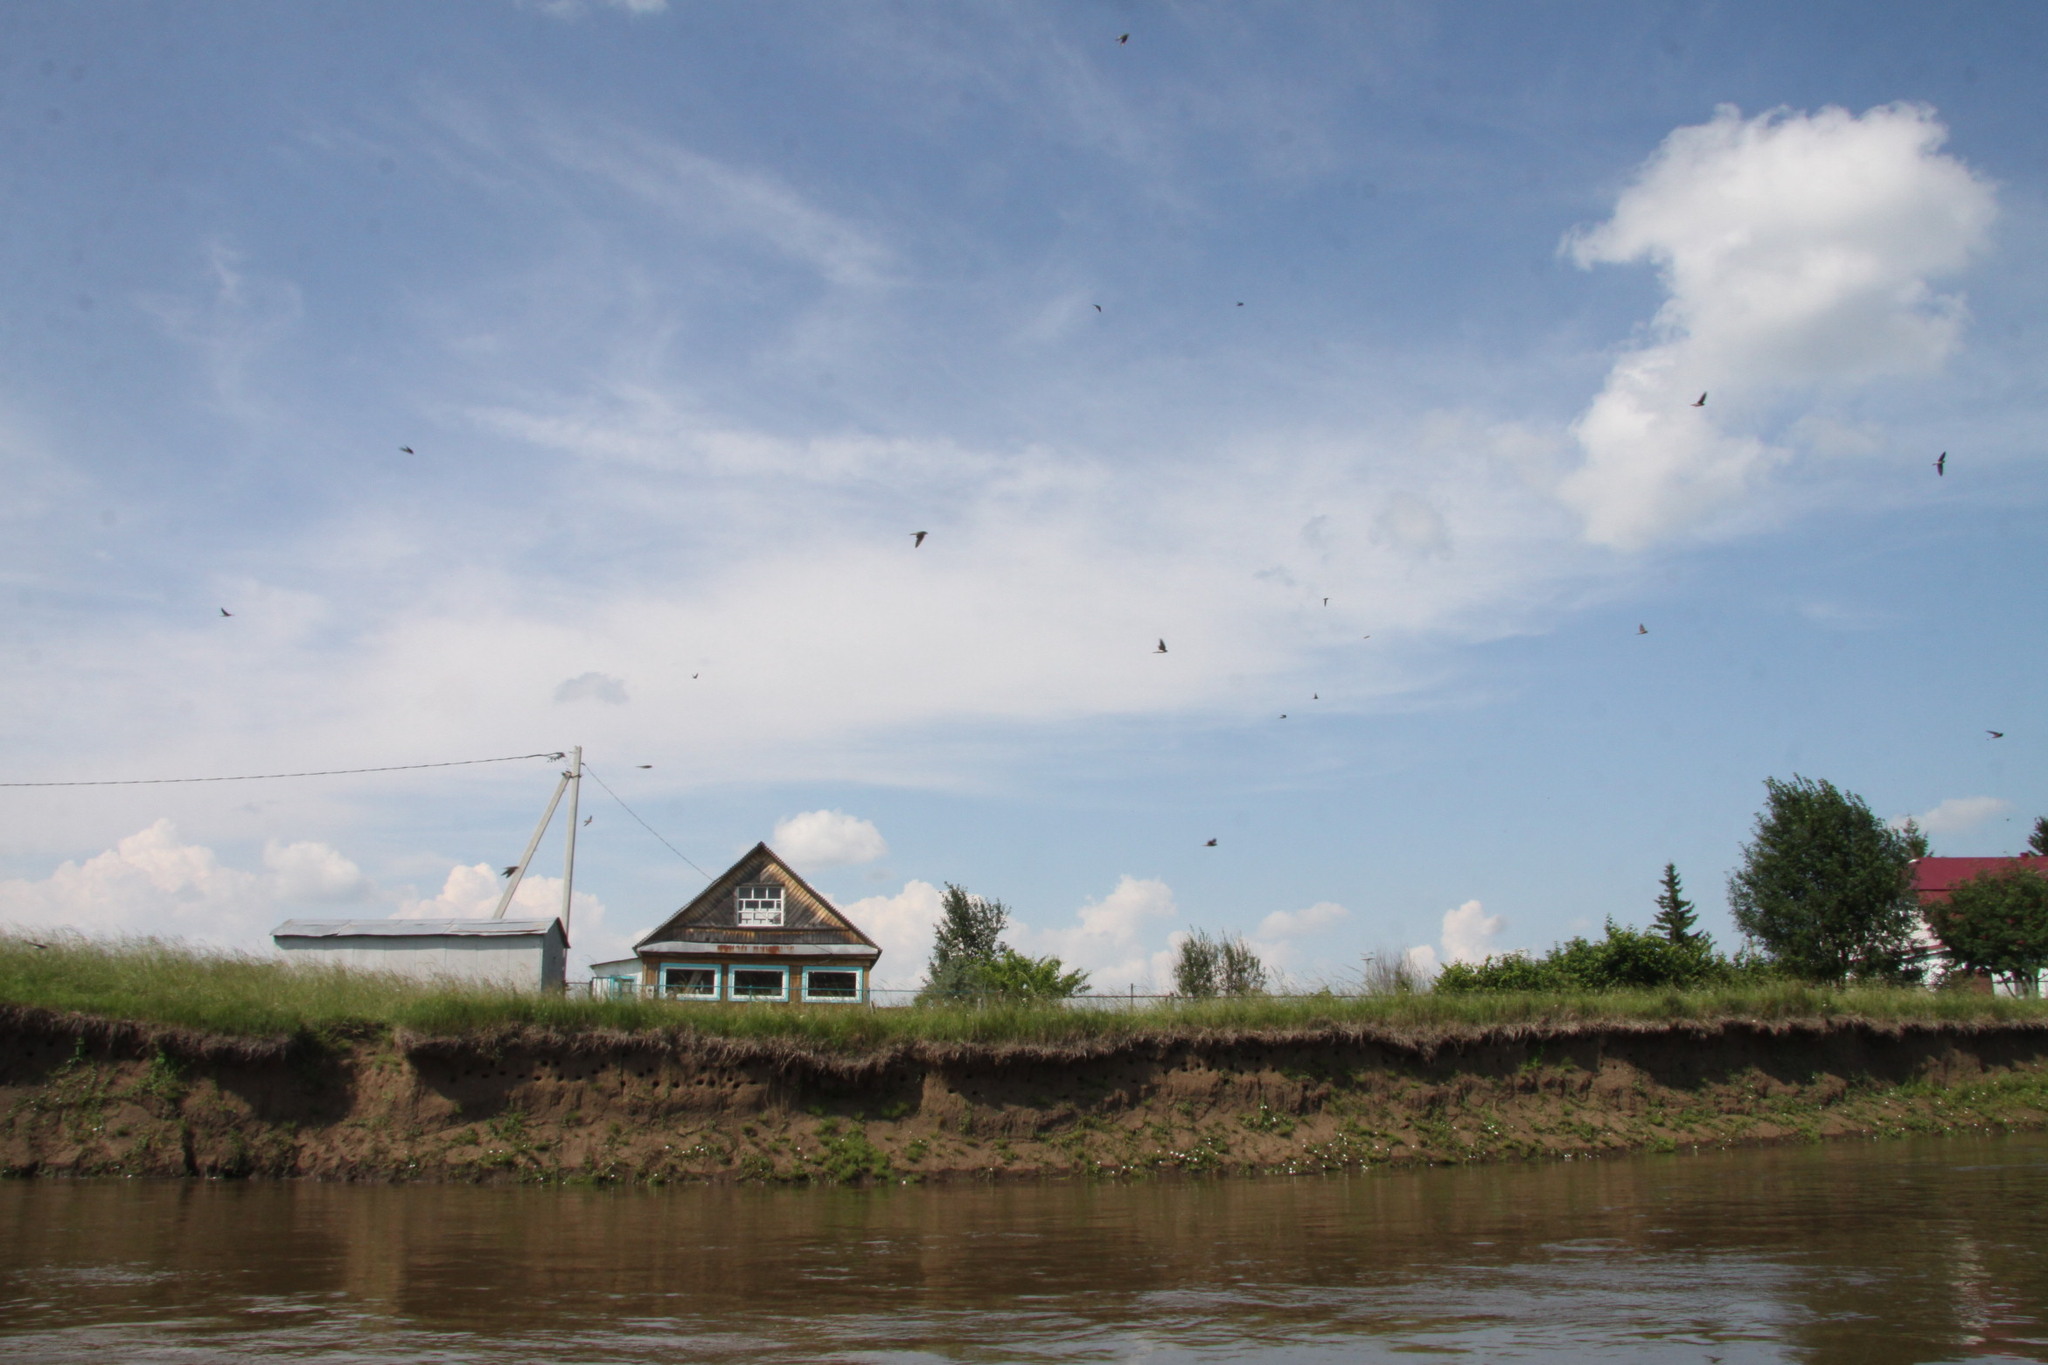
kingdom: Animalia
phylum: Chordata
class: Aves
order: Passeriformes
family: Hirundinidae
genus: Riparia
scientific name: Riparia riparia
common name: Sand martin
